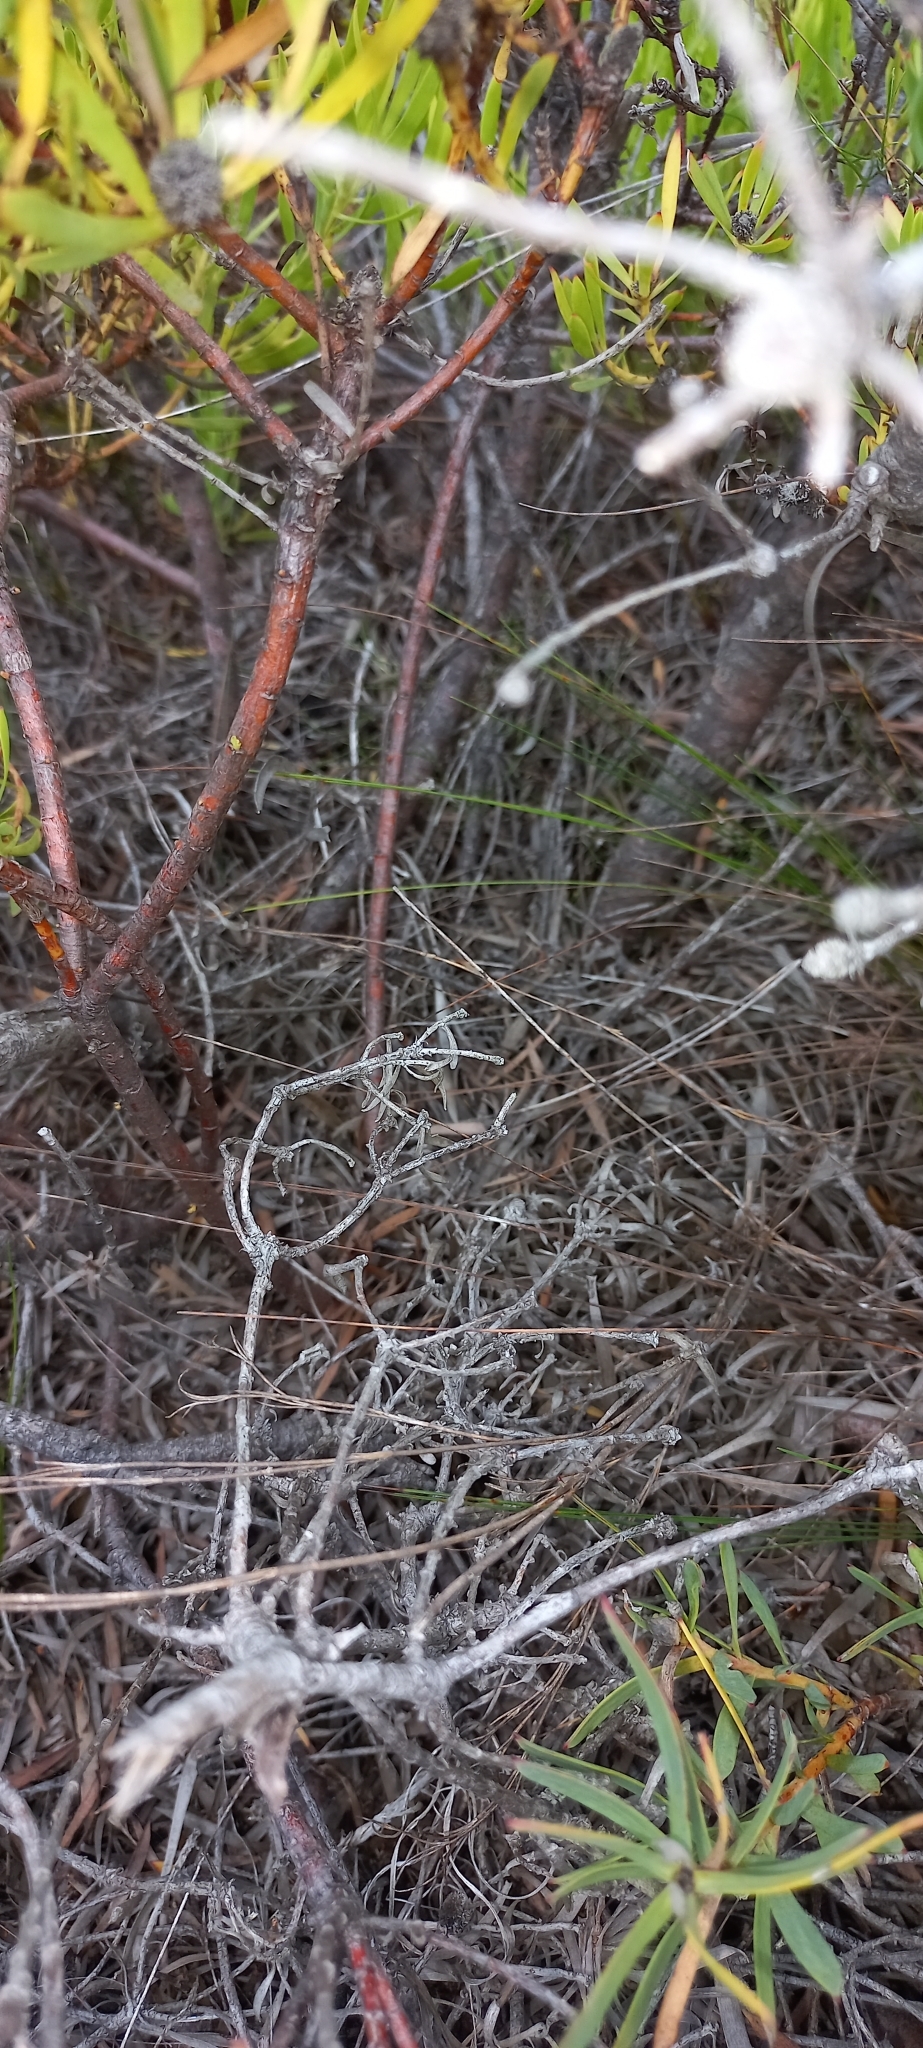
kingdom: Plantae
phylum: Tracheophyta
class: Magnoliopsida
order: Proteales
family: Proteaceae
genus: Leucadendron
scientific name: Leucadendron salignum
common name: Common sunshine conebush
